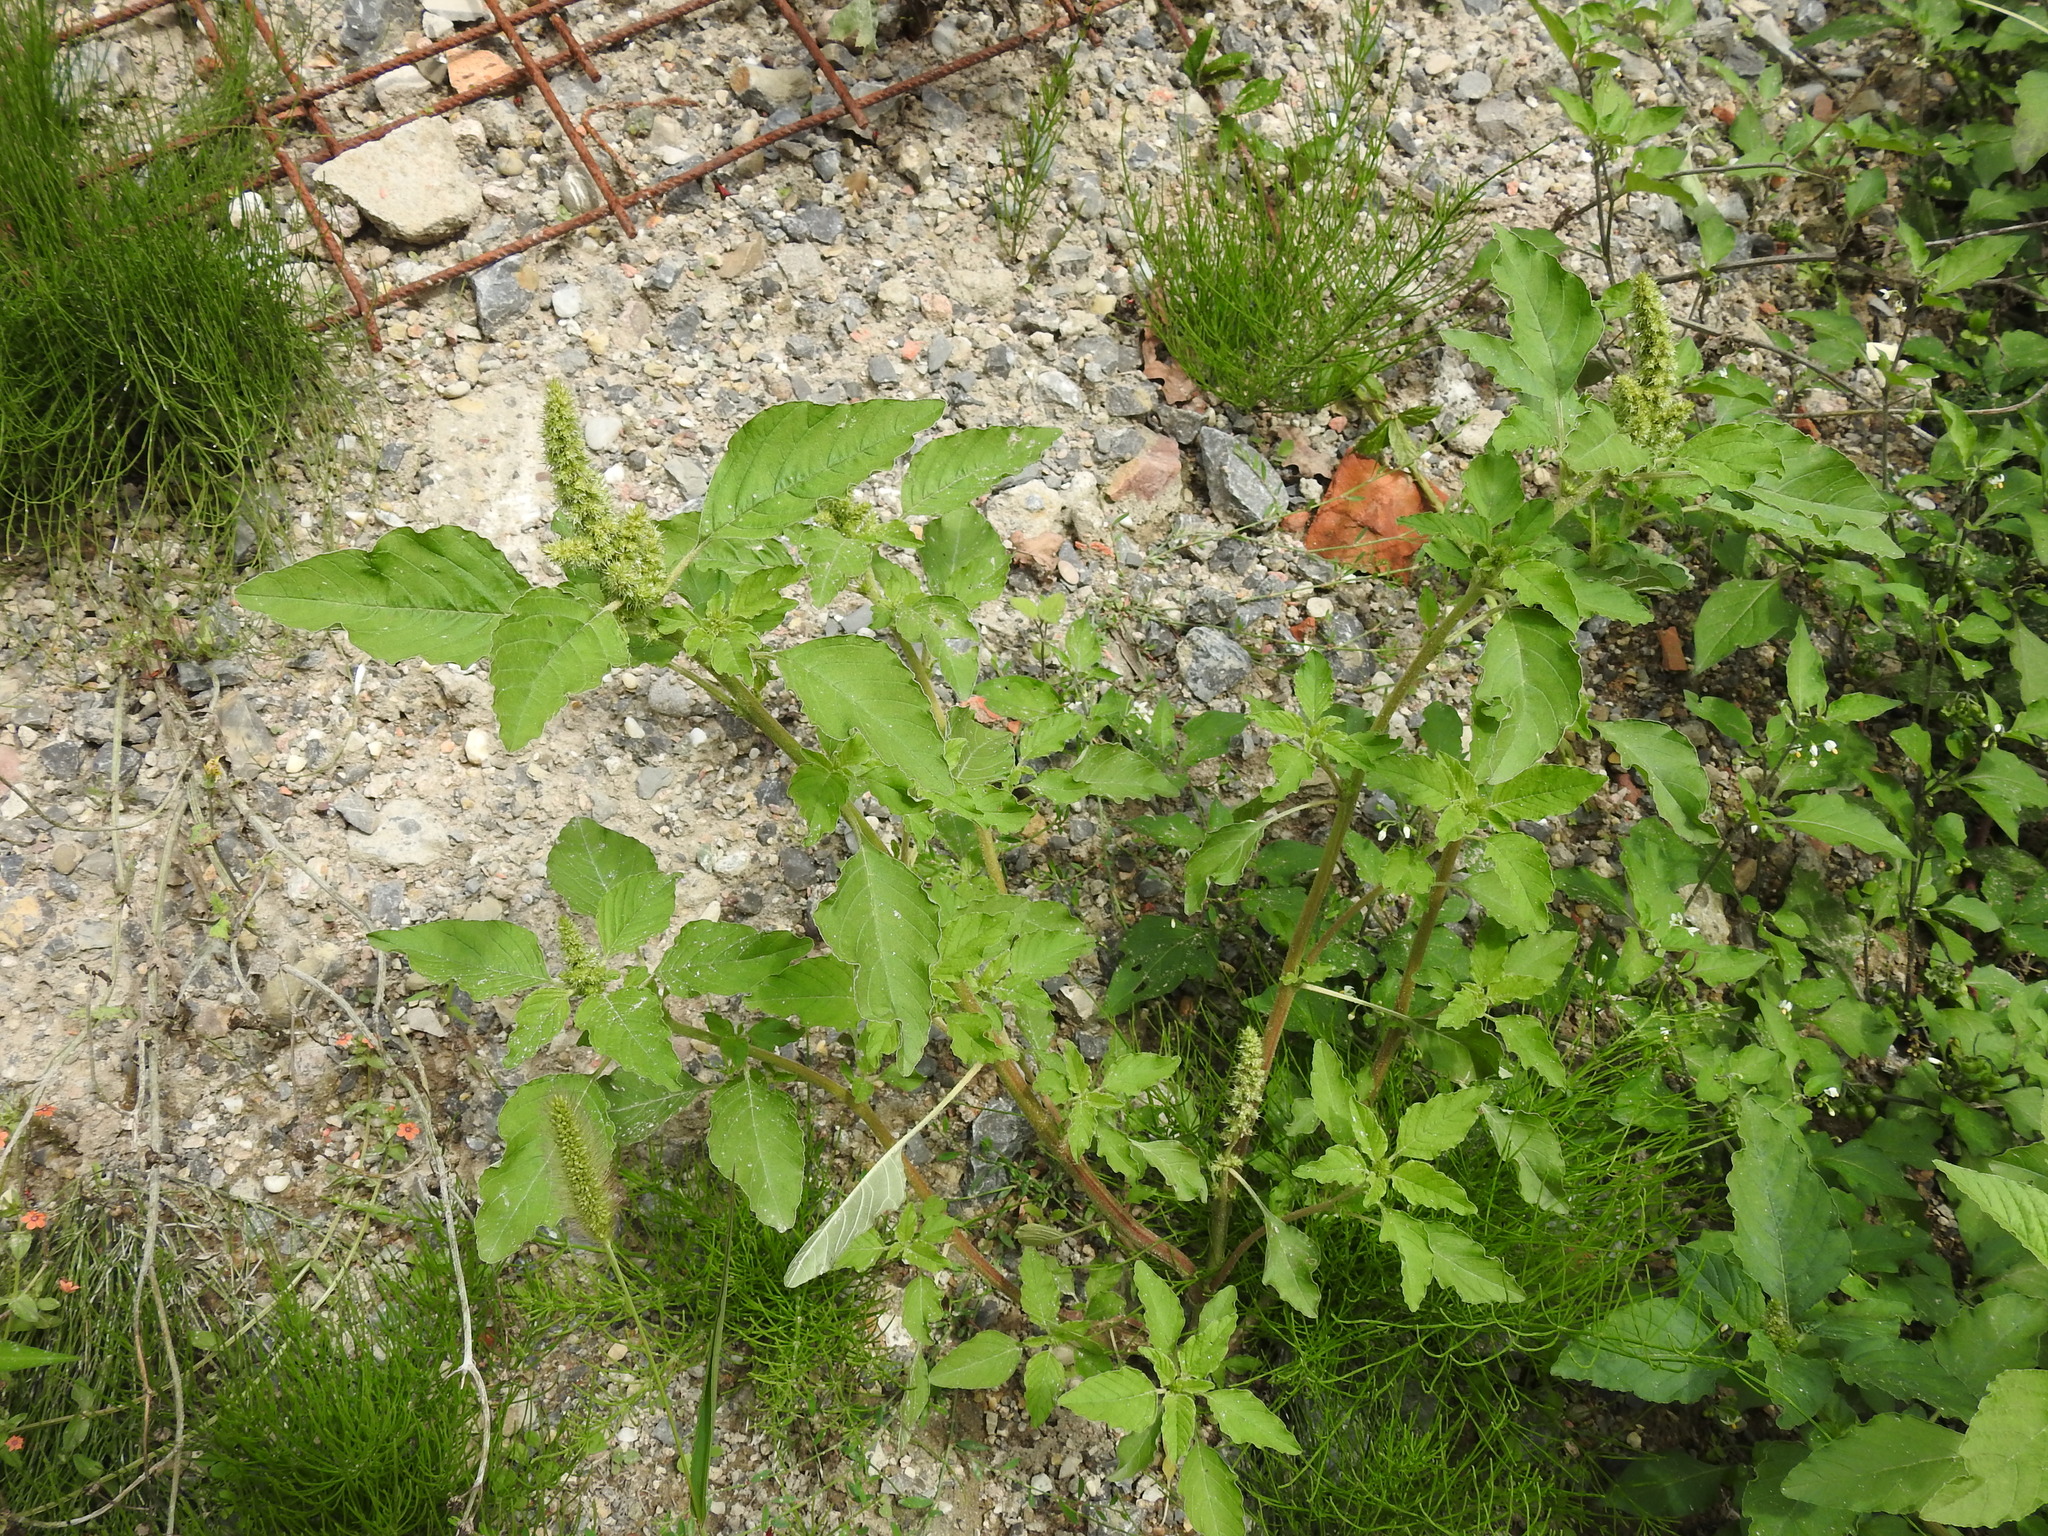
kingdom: Plantae
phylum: Tracheophyta
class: Magnoliopsida
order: Caryophyllales
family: Amaranthaceae
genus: Amaranthus
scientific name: Amaranthus retroflexus
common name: Redroot amaranth
